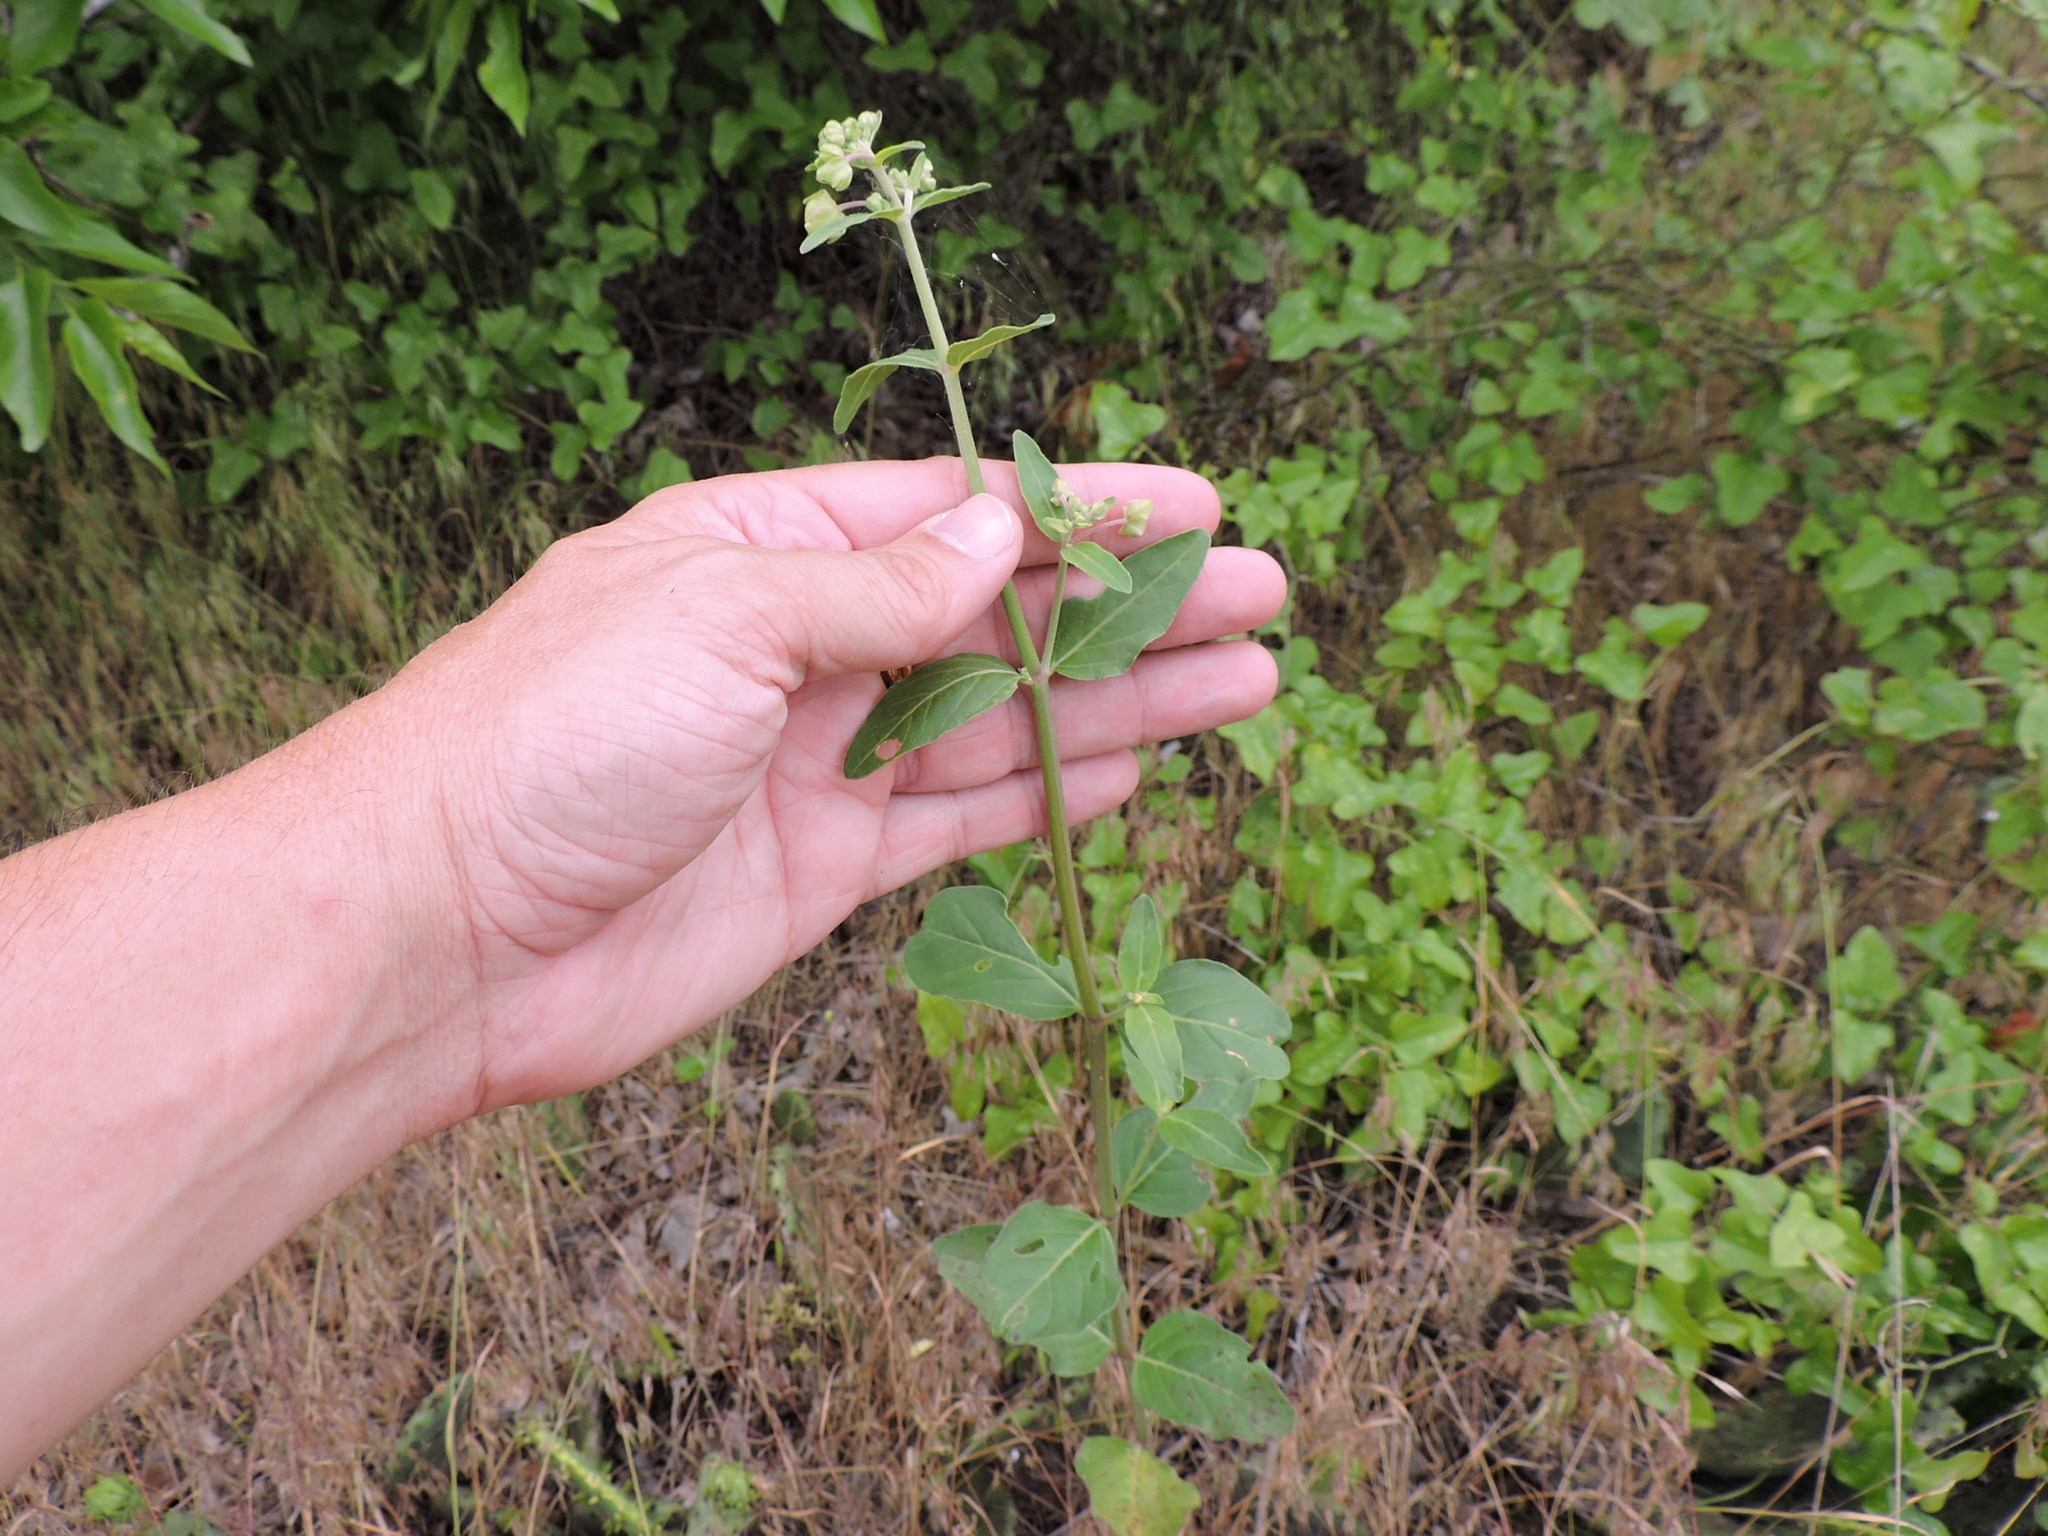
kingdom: Plantae
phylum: Tracheophyta
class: Magnoliopsida
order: Caryophyllales
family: Nyctaginaceae
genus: Mirabilis
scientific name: Mirabilis gigantea
